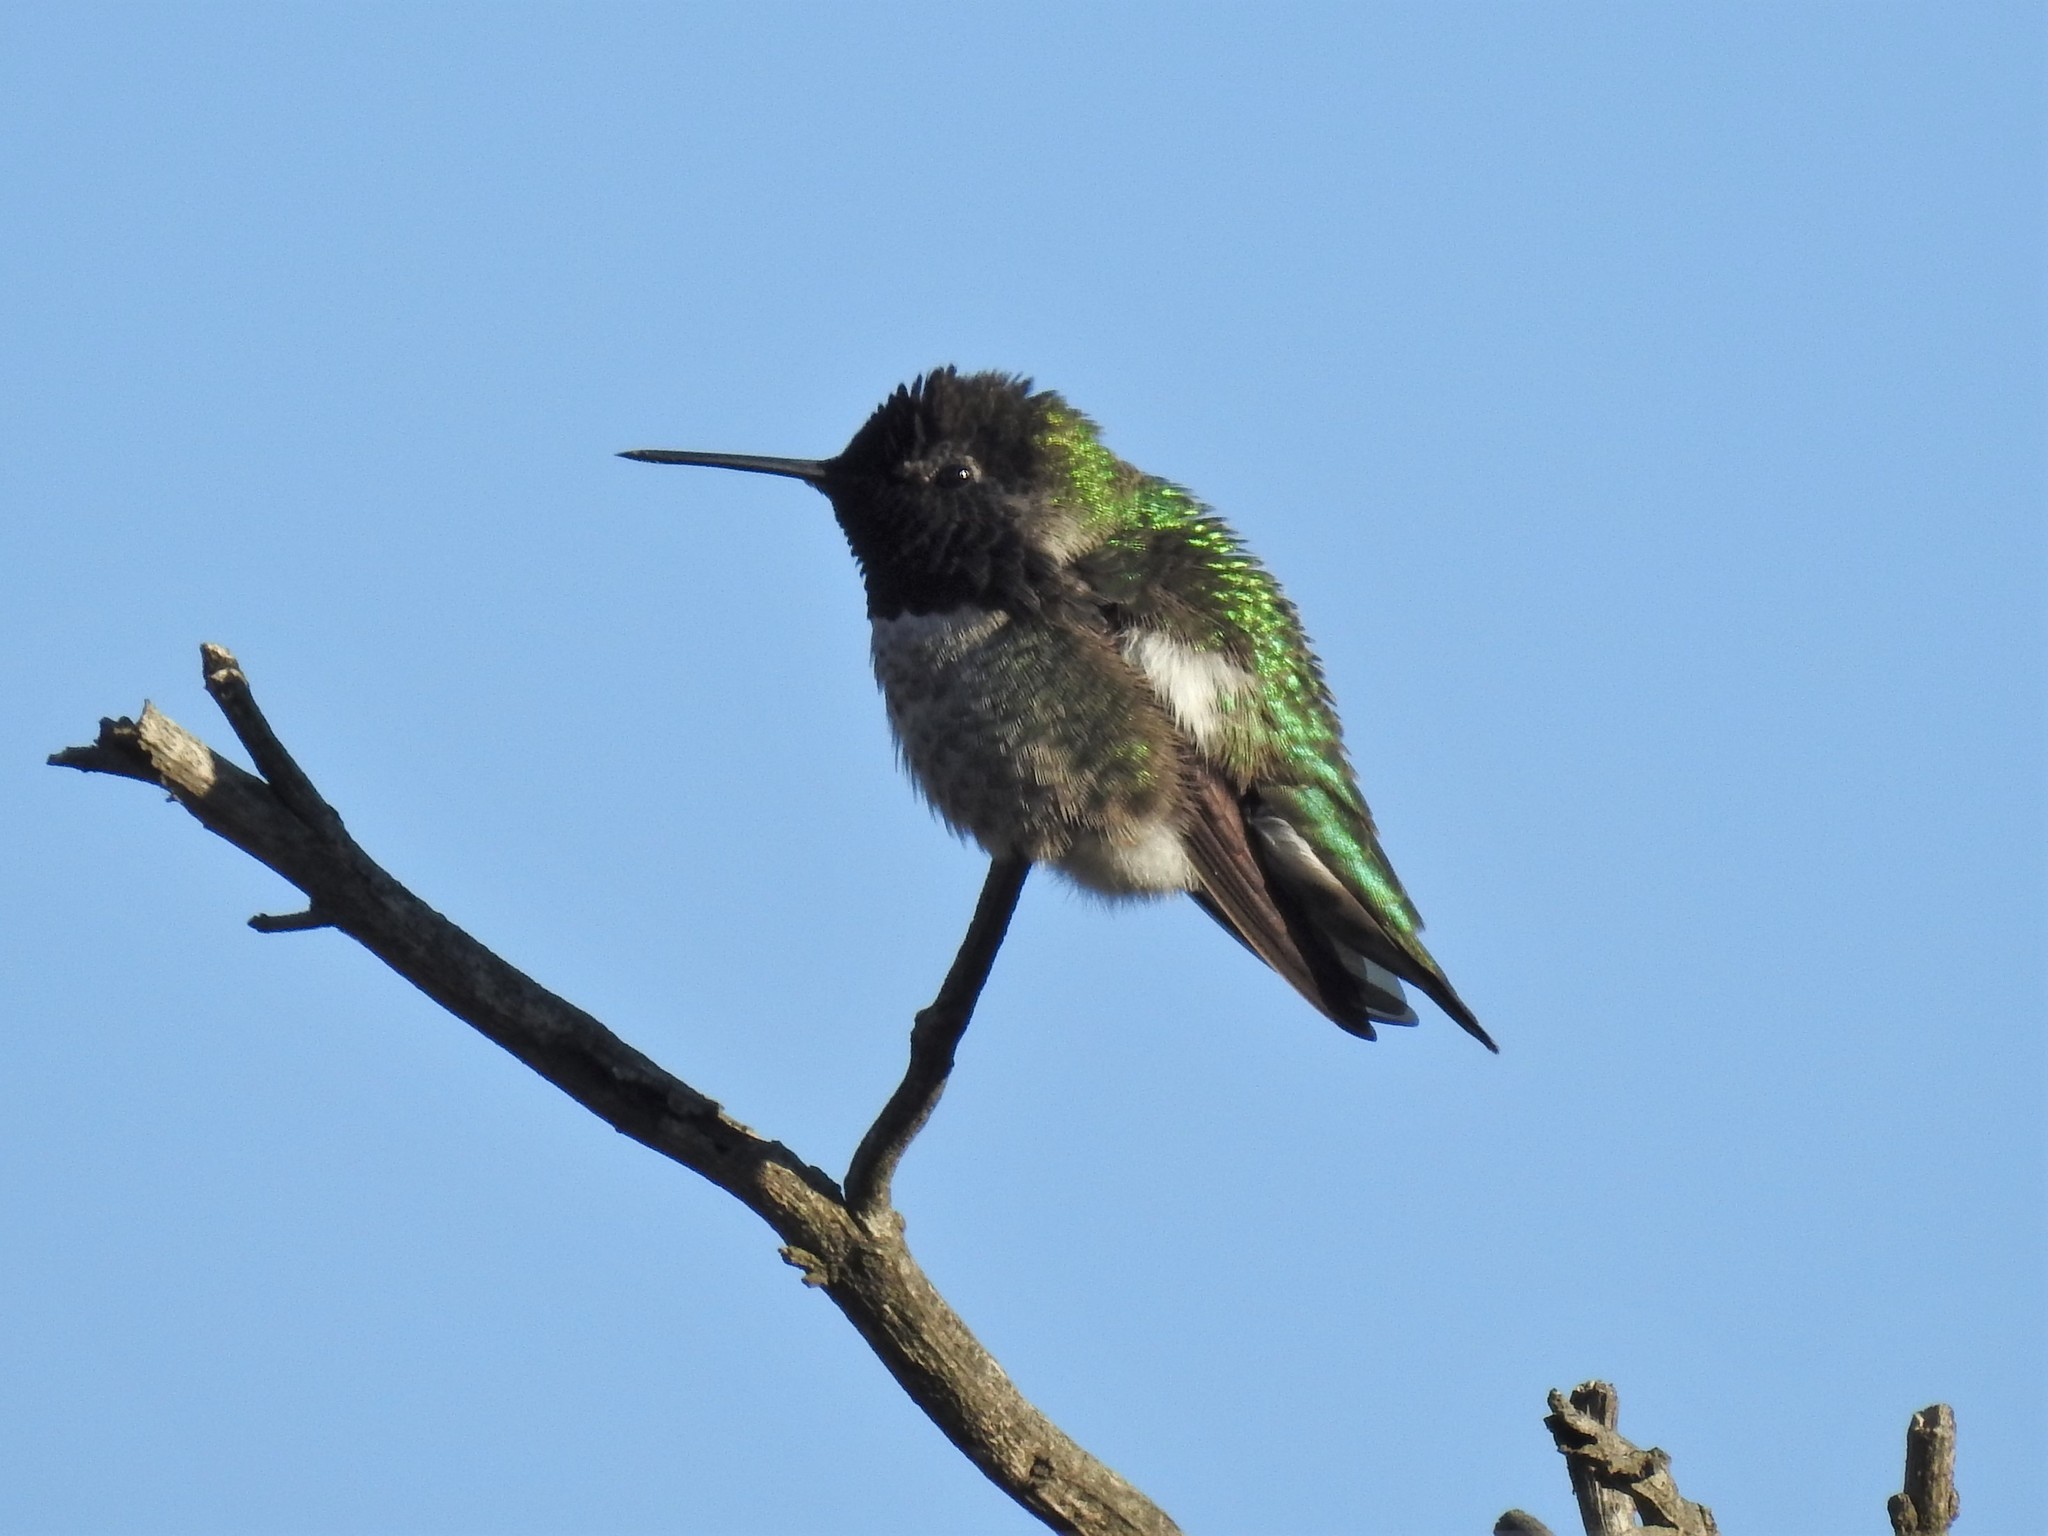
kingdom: Animalia
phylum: Chordata
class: Aves
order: Apodiformes
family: Trochilidae
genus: Calypte
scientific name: Calypte anna
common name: Anna's hummingbird
